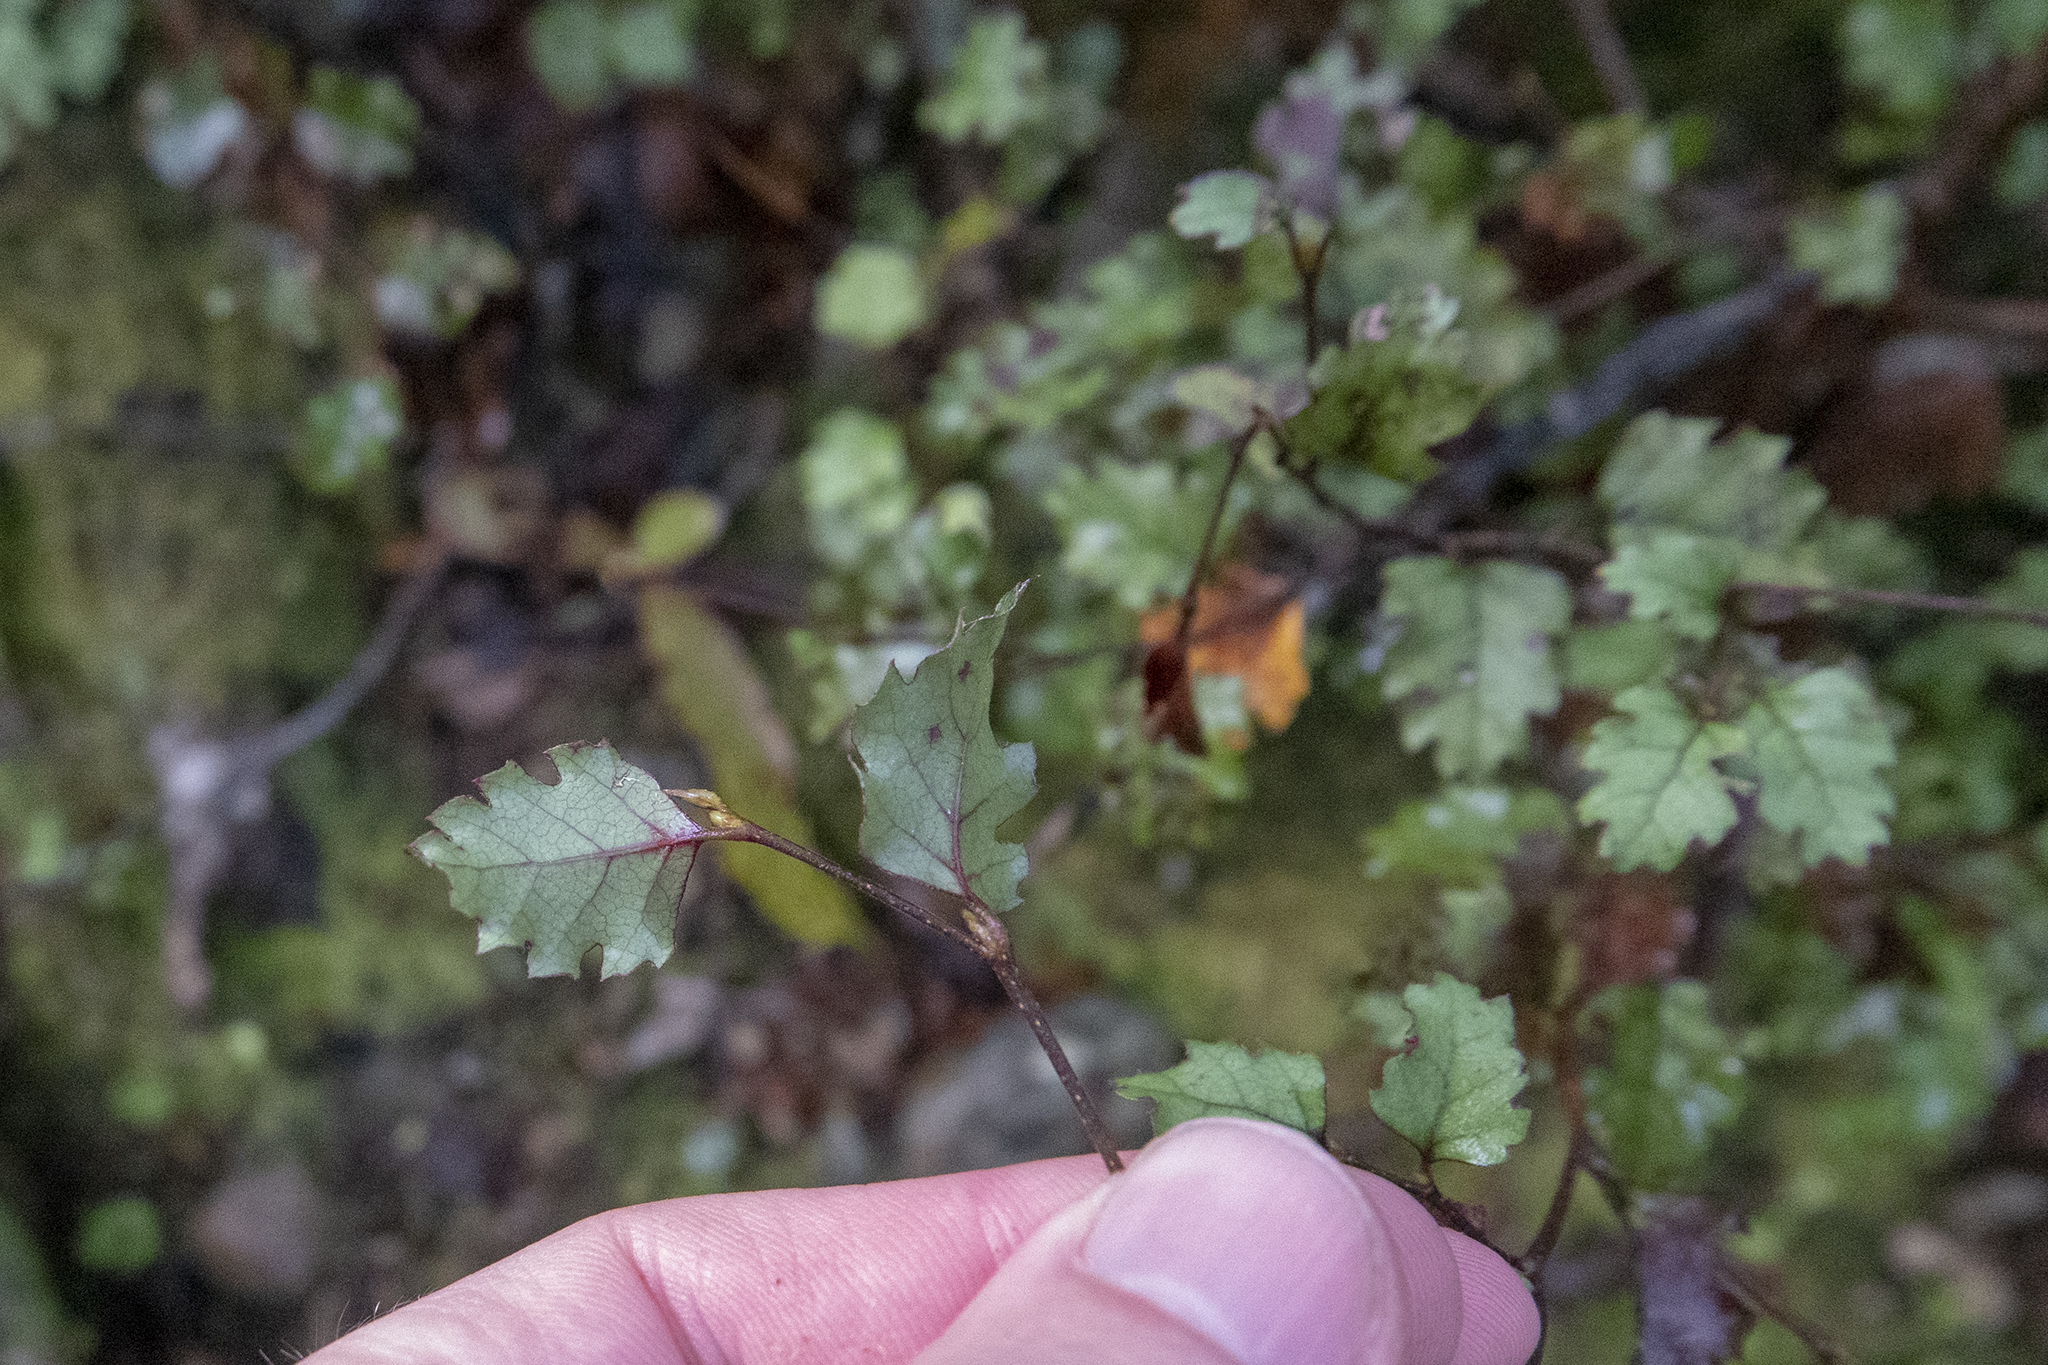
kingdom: Plantae
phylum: Tracheophyta
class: Magnoliopsida
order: Fagales
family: Nothofagaceae
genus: Nothofagus
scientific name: Nothofagus fusca
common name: Red beech
